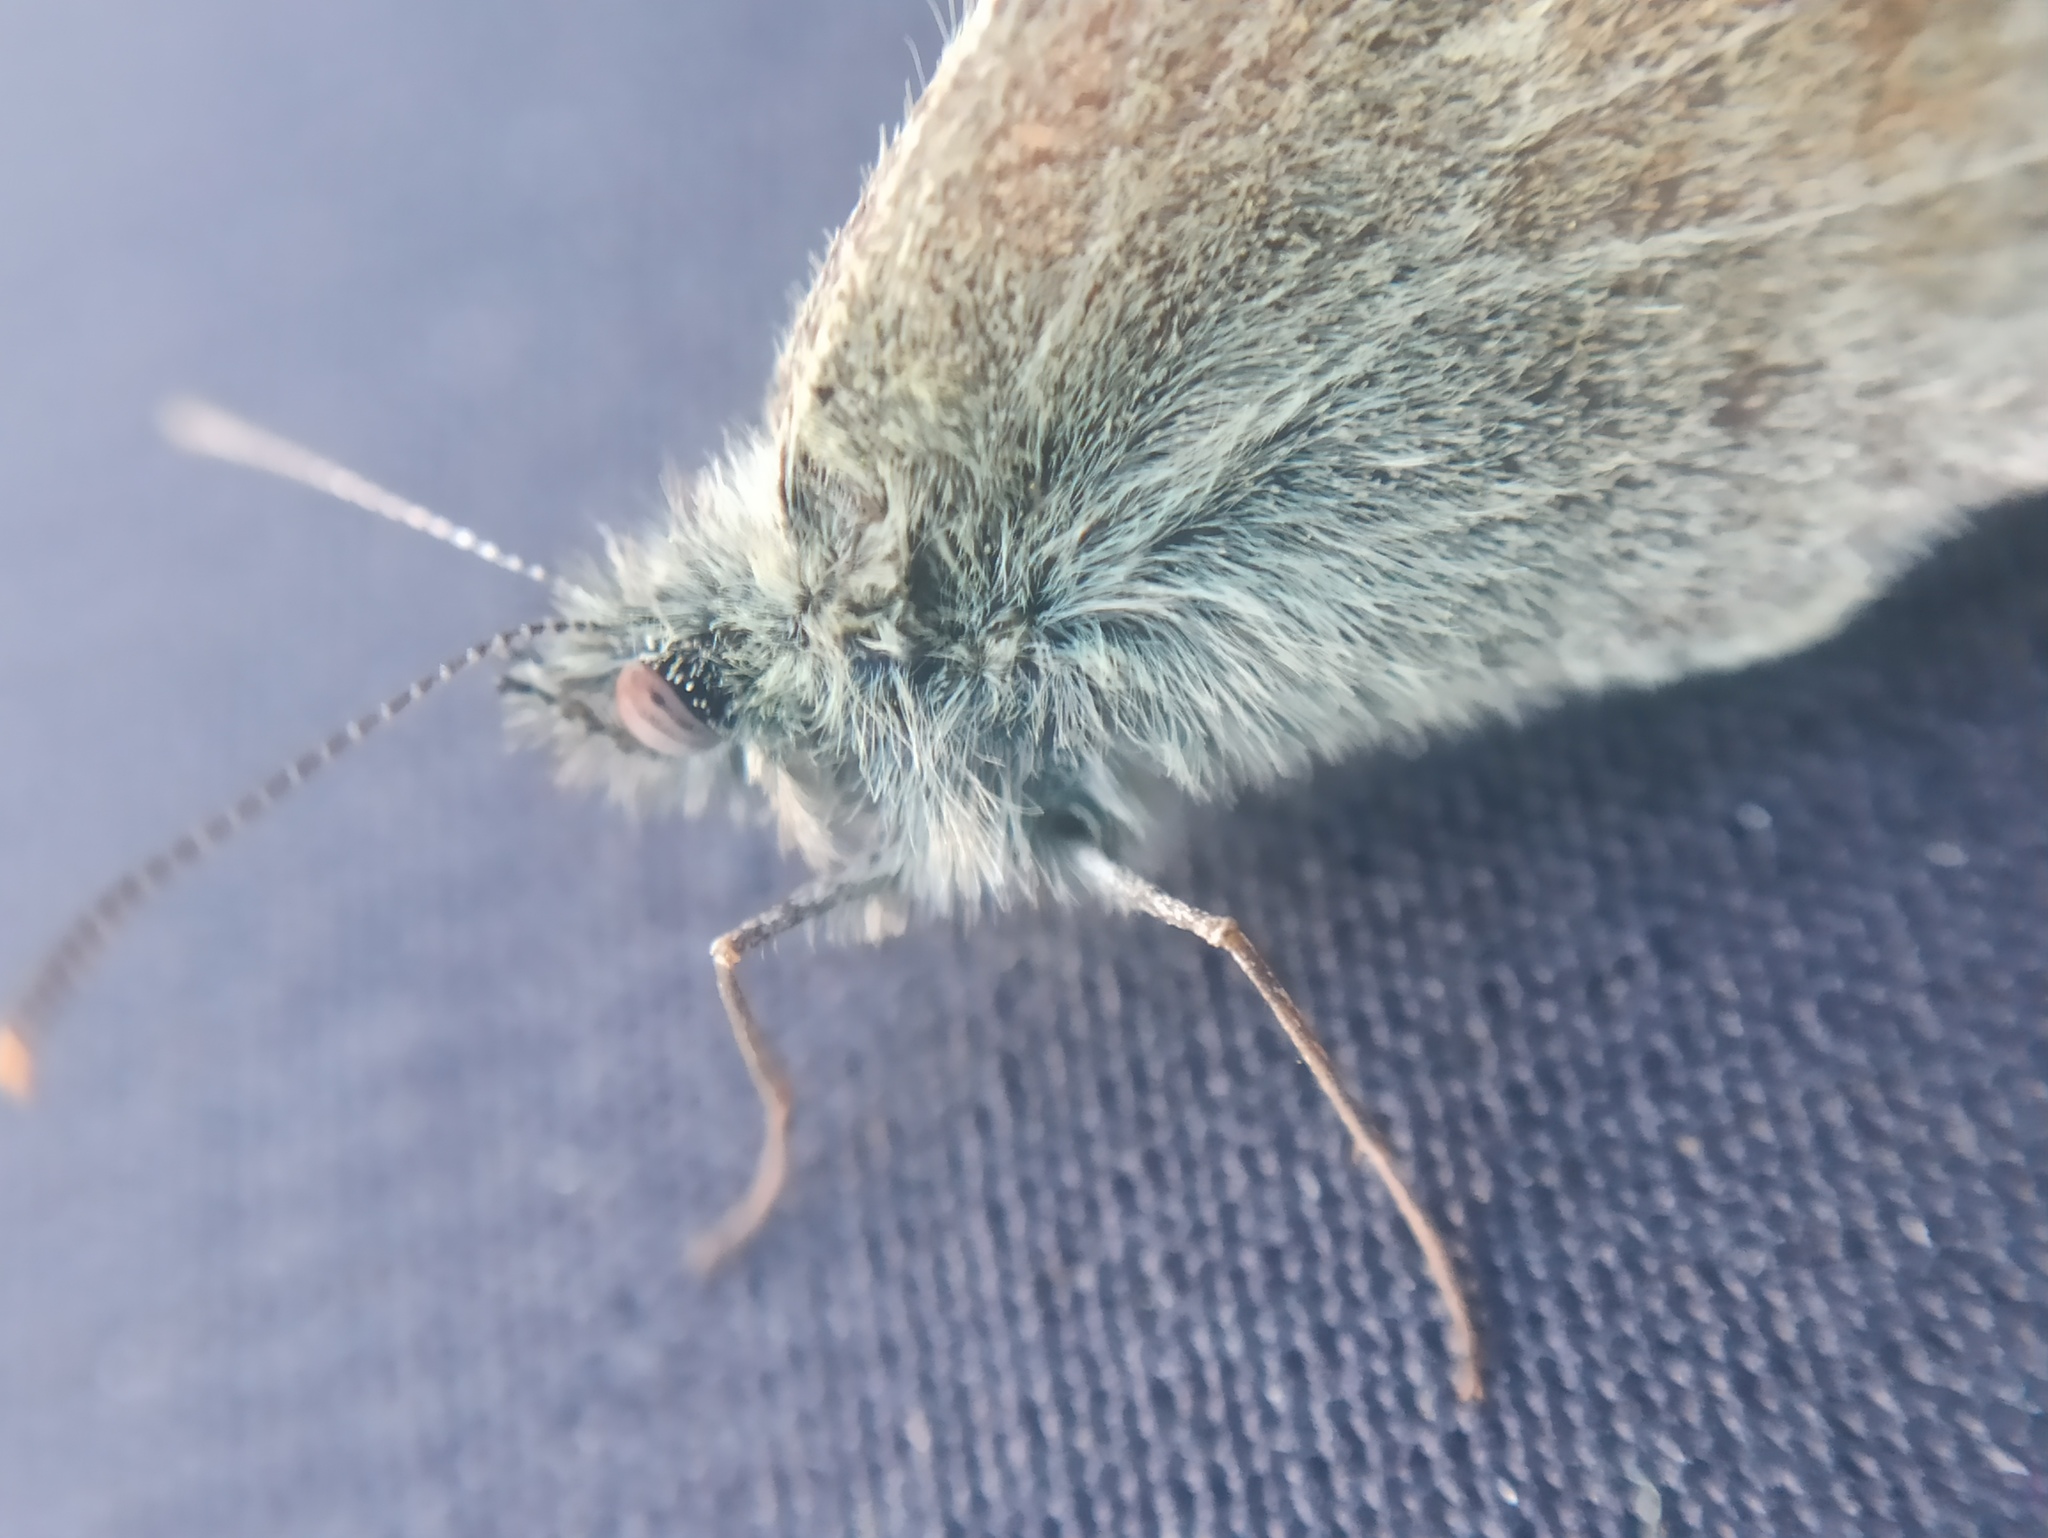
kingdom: Animalia
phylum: Arthropoda
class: Insecta
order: Lepidoptera
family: Nymphalidae
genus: Coenonympha
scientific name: Coenonympha pamphilus
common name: Small heath
